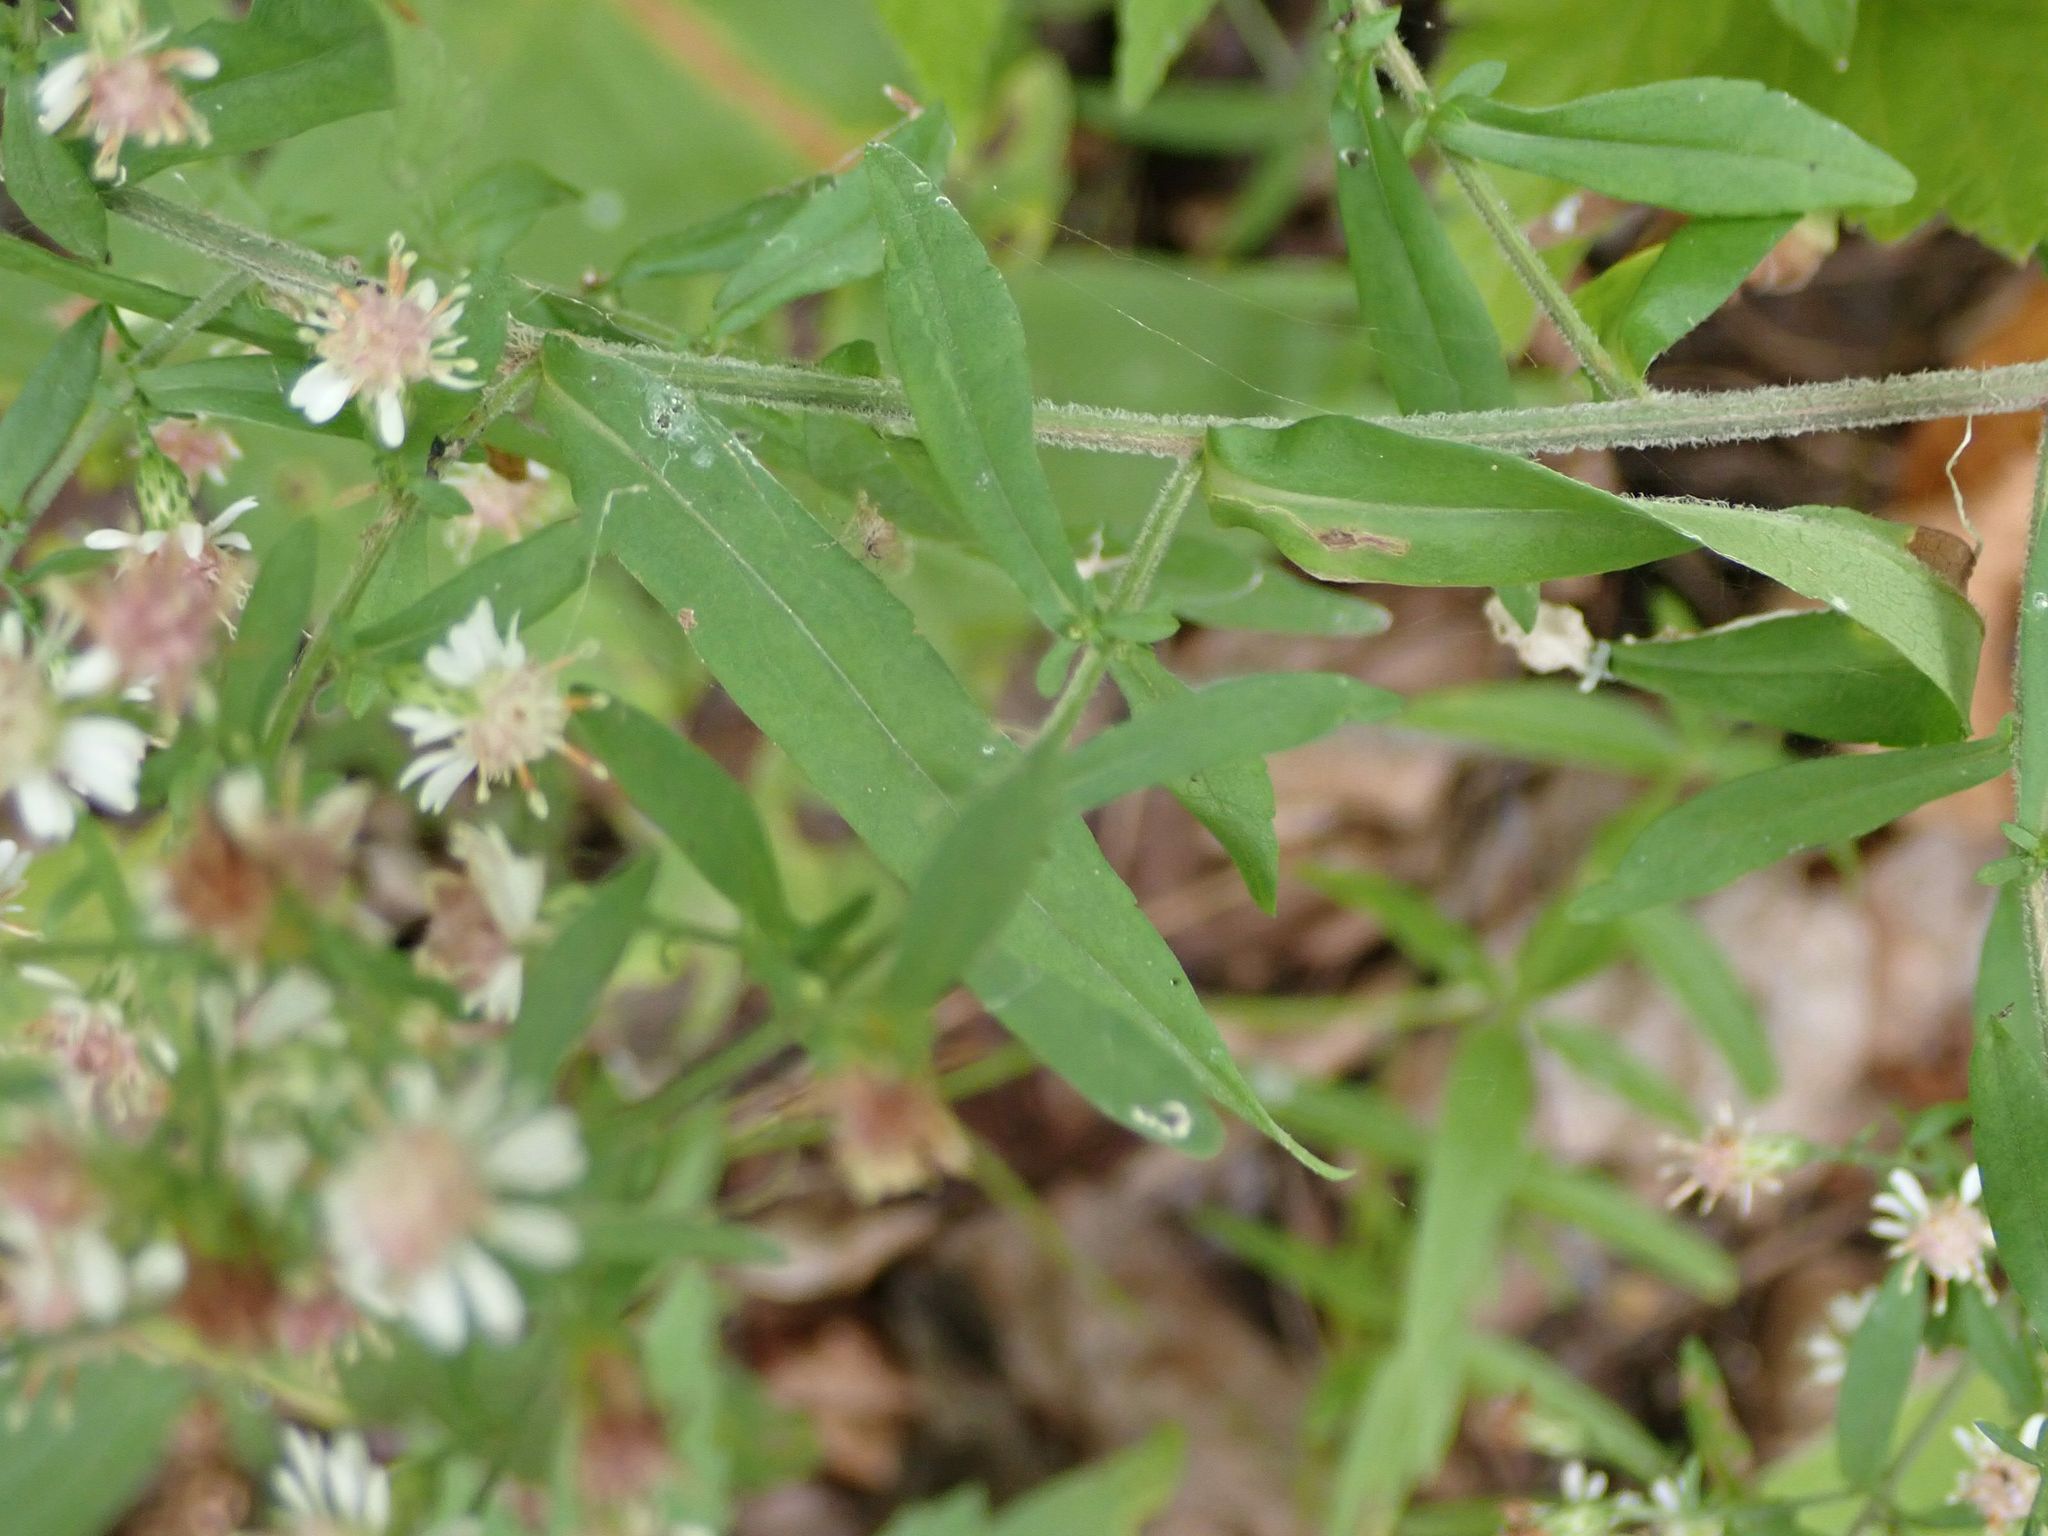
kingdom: Plantae
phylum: Tracheophyta
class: Magnoliopsida
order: Asterales
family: Asteraceae
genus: Symphyotrichum
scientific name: Symphyotrichum lateriflorum
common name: Calico aster
